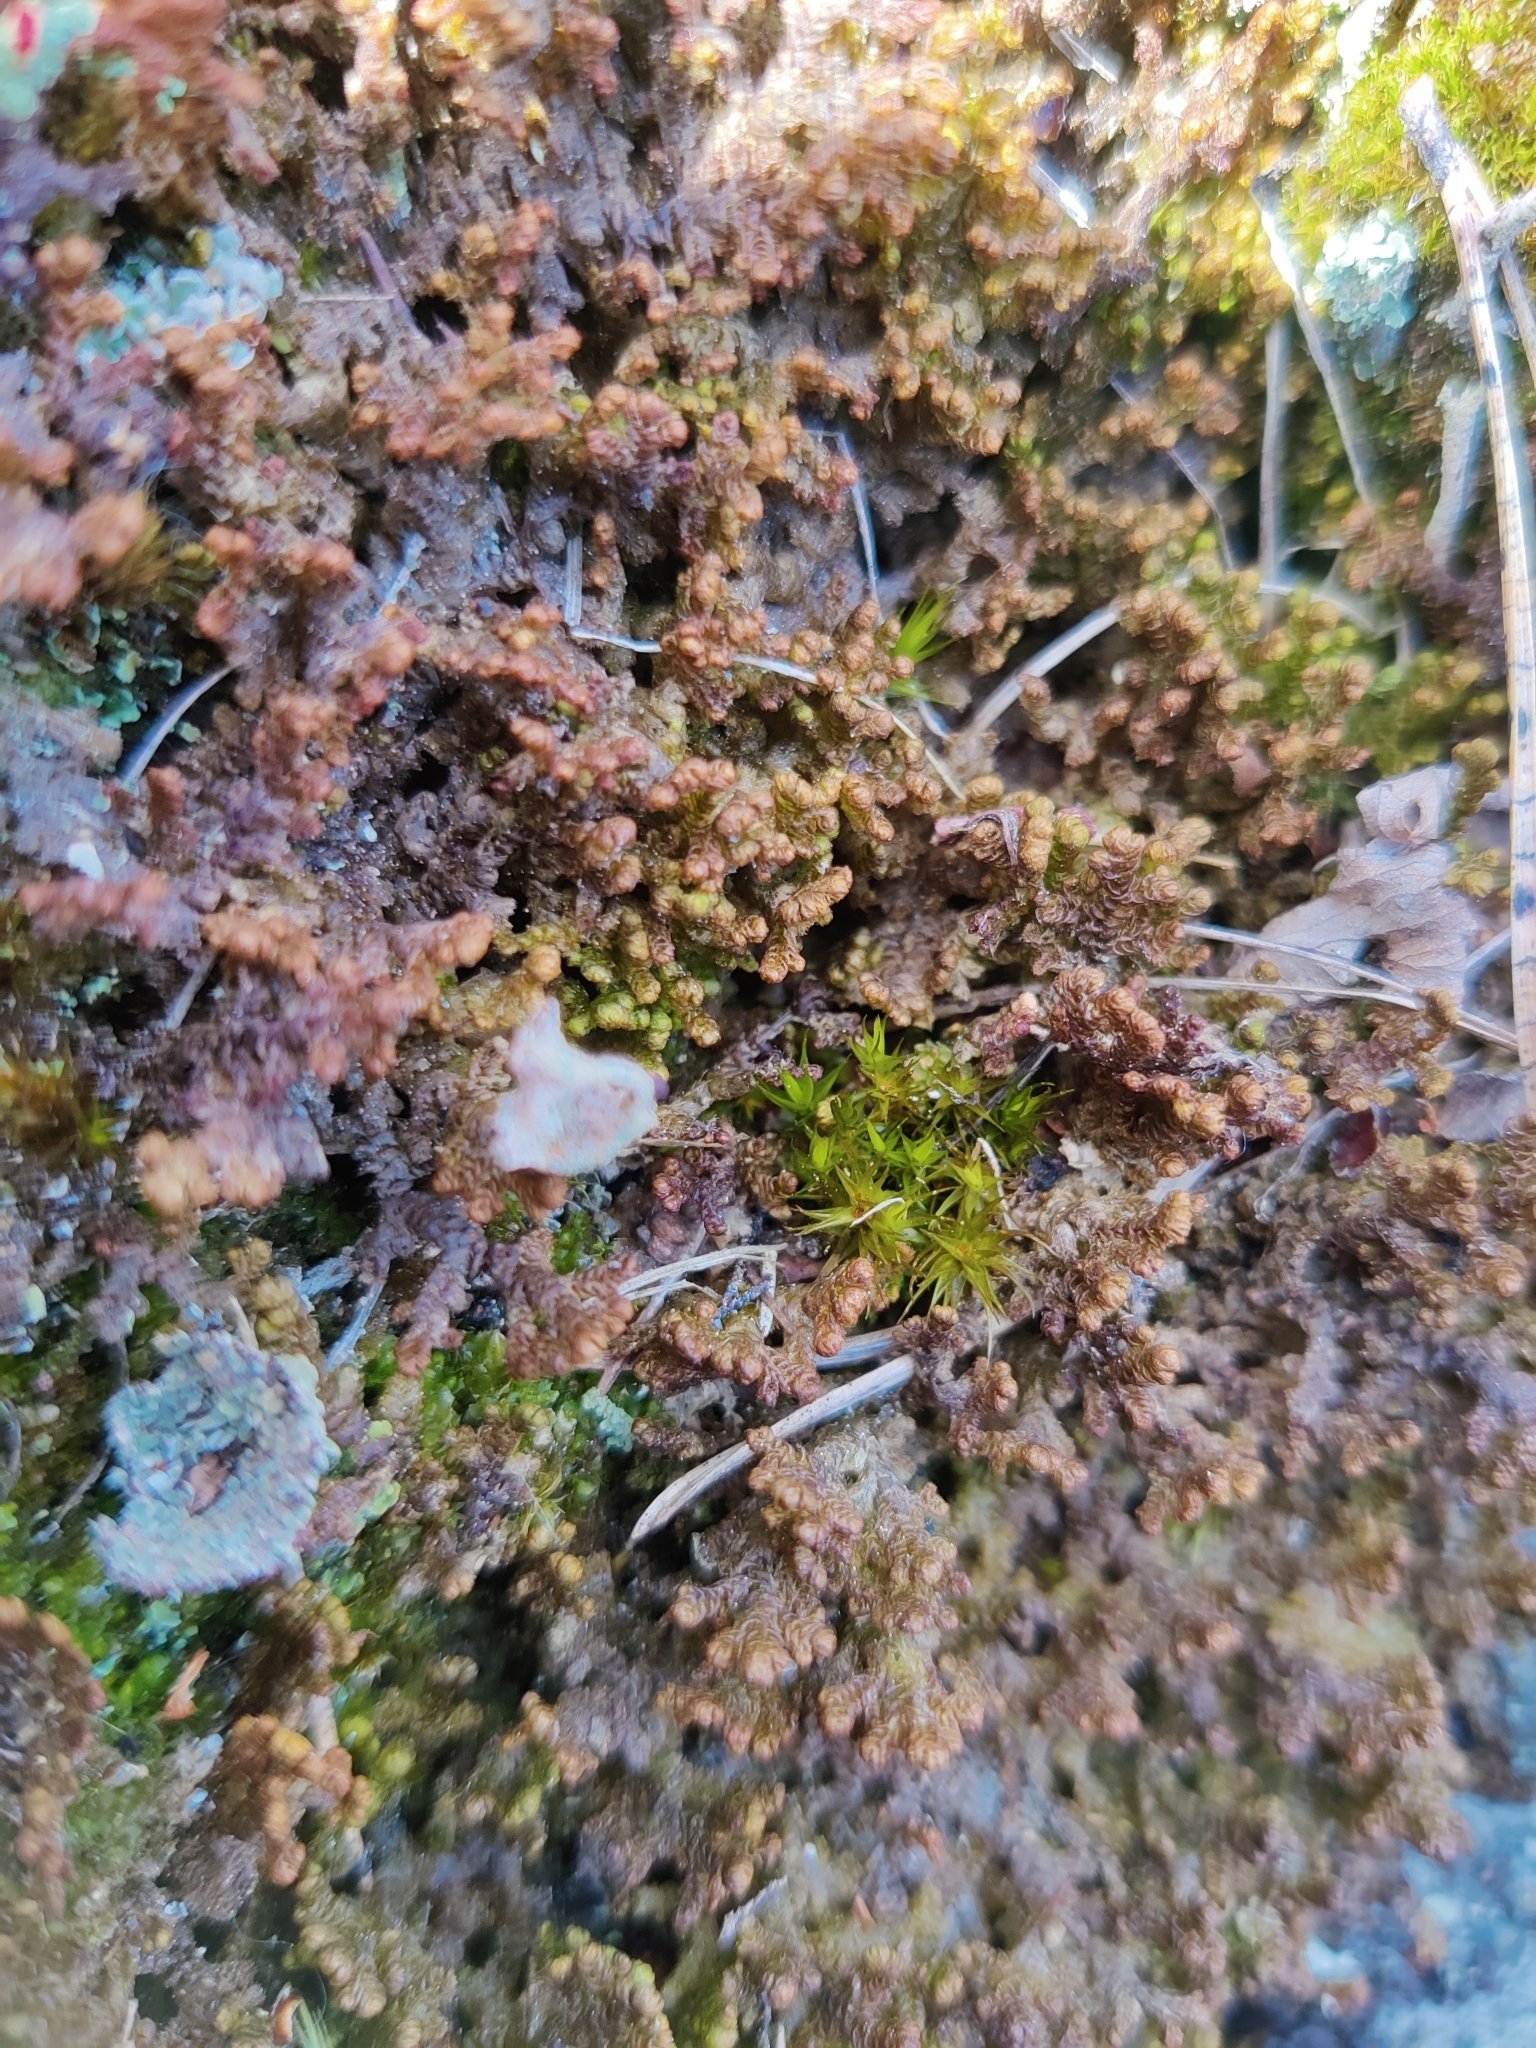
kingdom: Plantae
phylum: Marchantiophyta
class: Jungermanniopsida
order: Ptilidiales
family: Ptilidiaceae
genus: Ptilidium
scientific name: Ptilidium ciliare
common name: Ciliate fringewort
